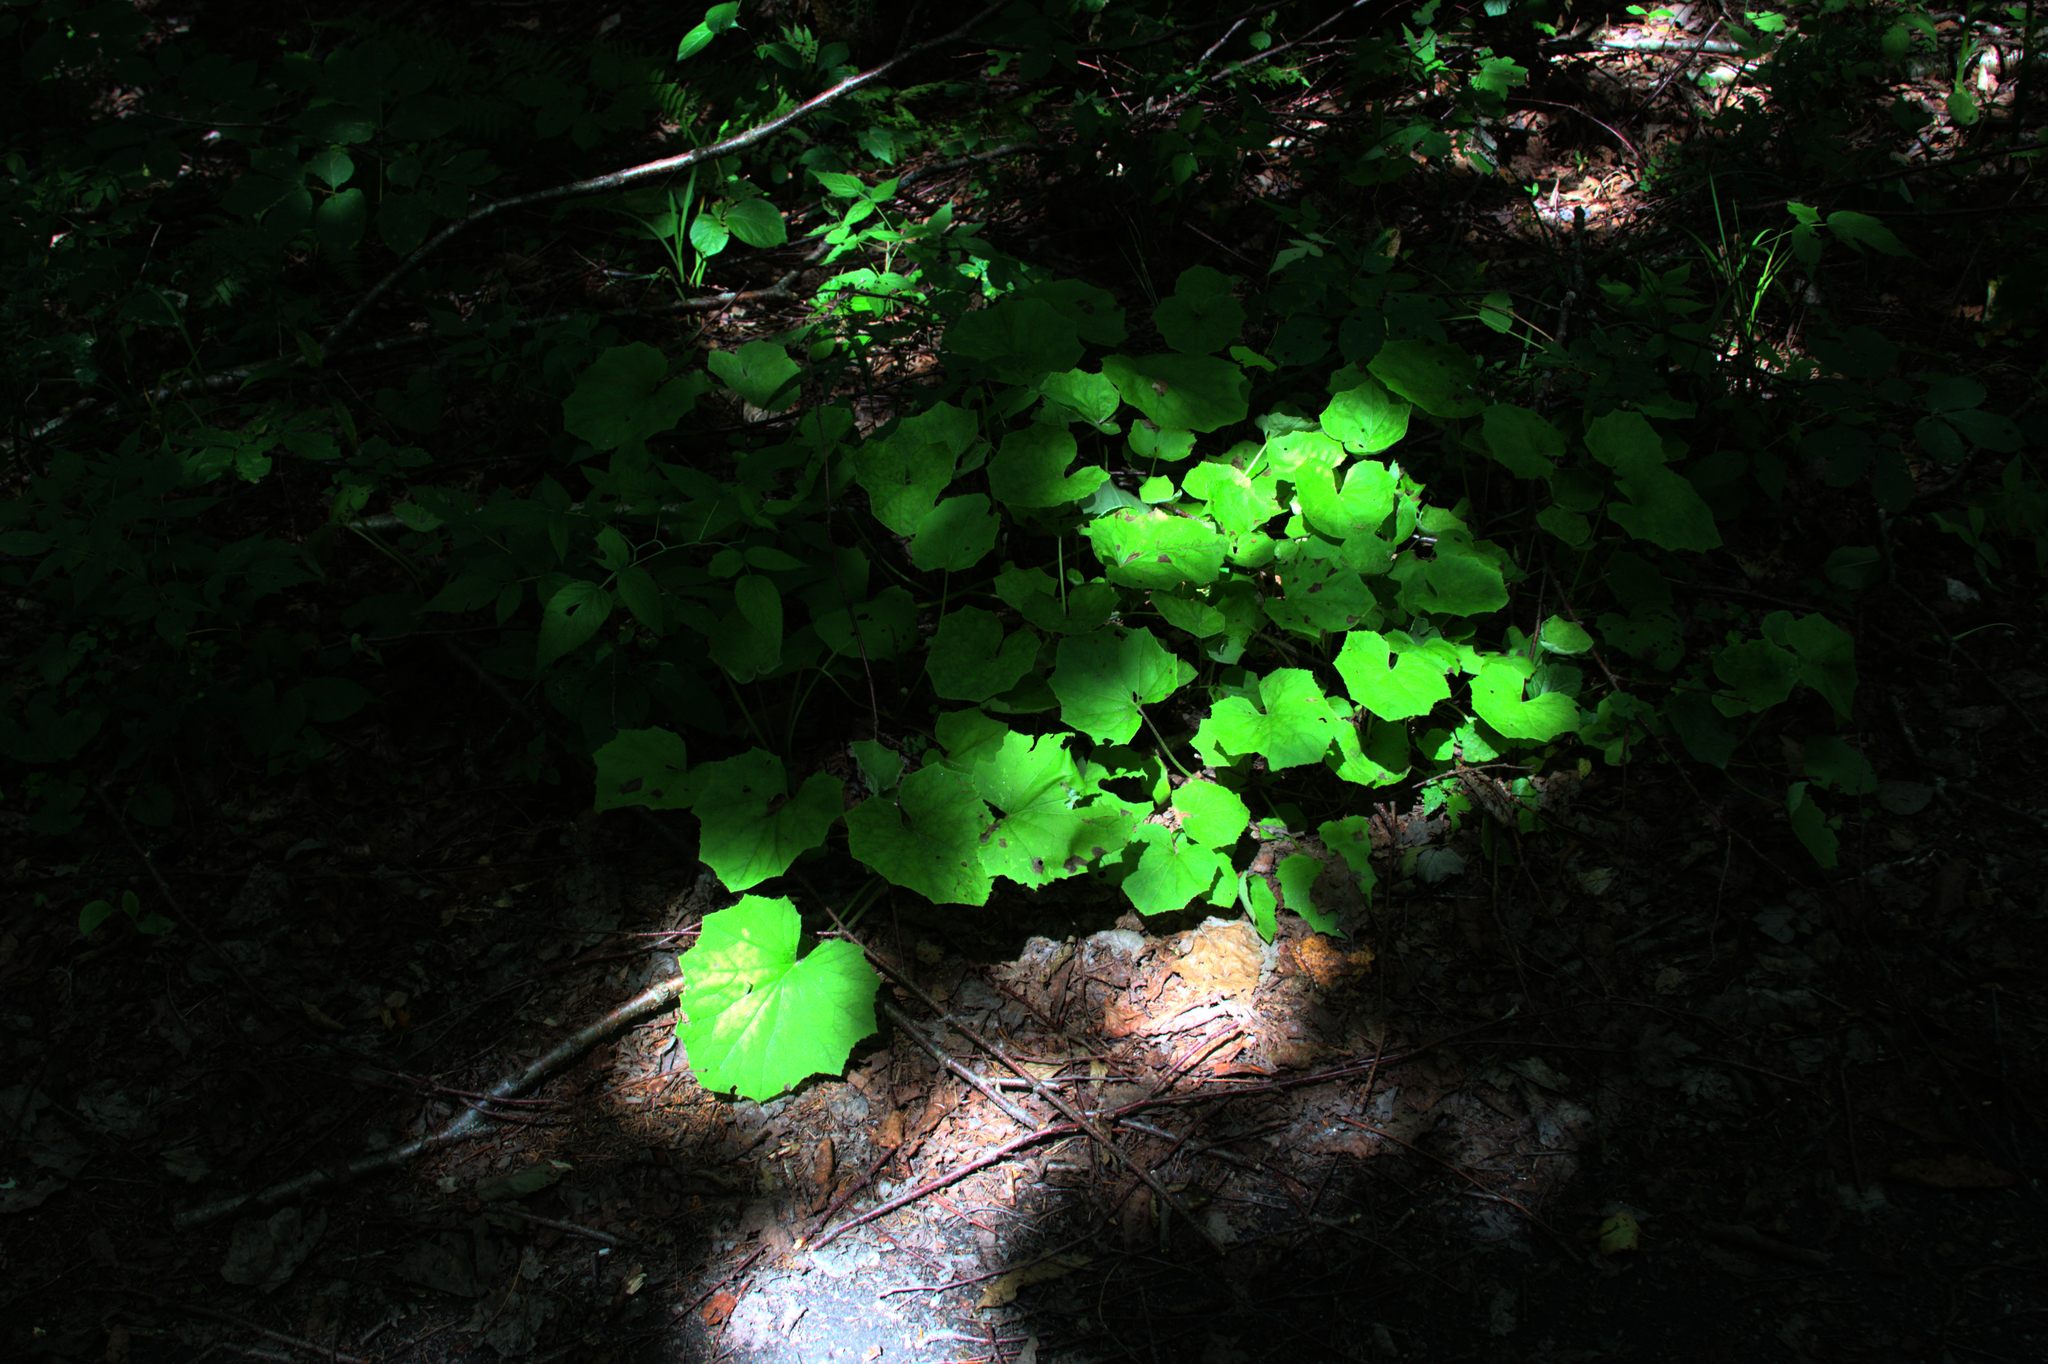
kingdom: Plantae
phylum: Tracheophyta
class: Magnoliopsida
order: Asterales
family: Asteraceae
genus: Tussilago
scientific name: Tussilago farfara
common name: Coltsfoot
